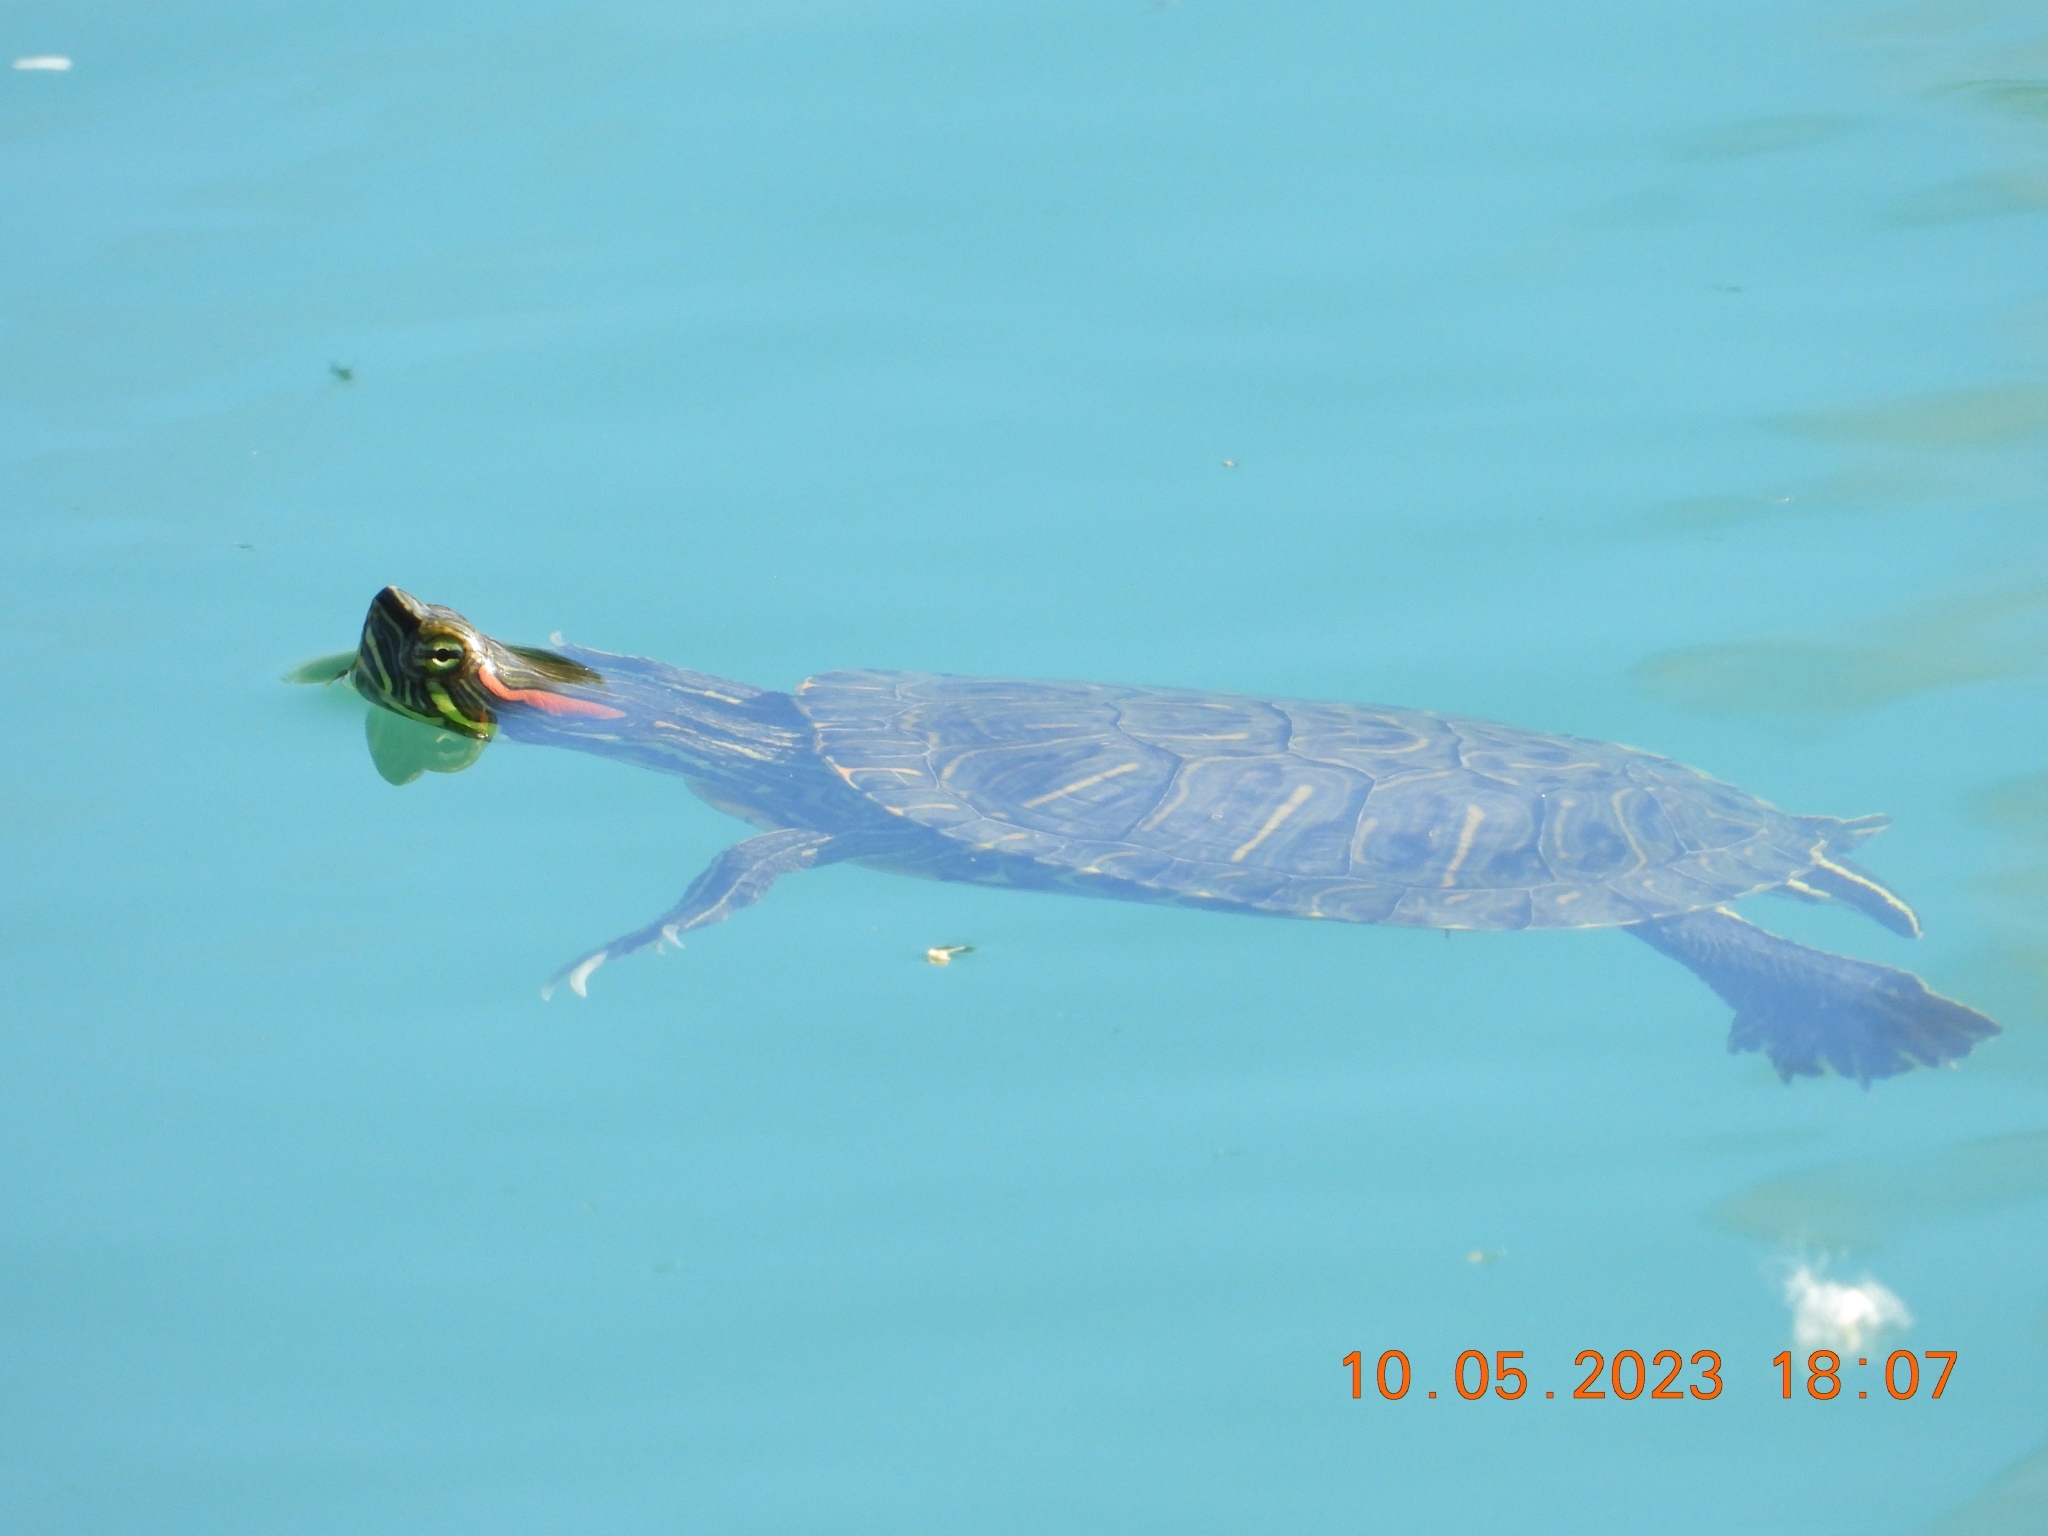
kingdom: Animalia
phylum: Chordata
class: Testudines
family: Emydidae
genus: Trachemys
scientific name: Trachemys scripta
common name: Slider
